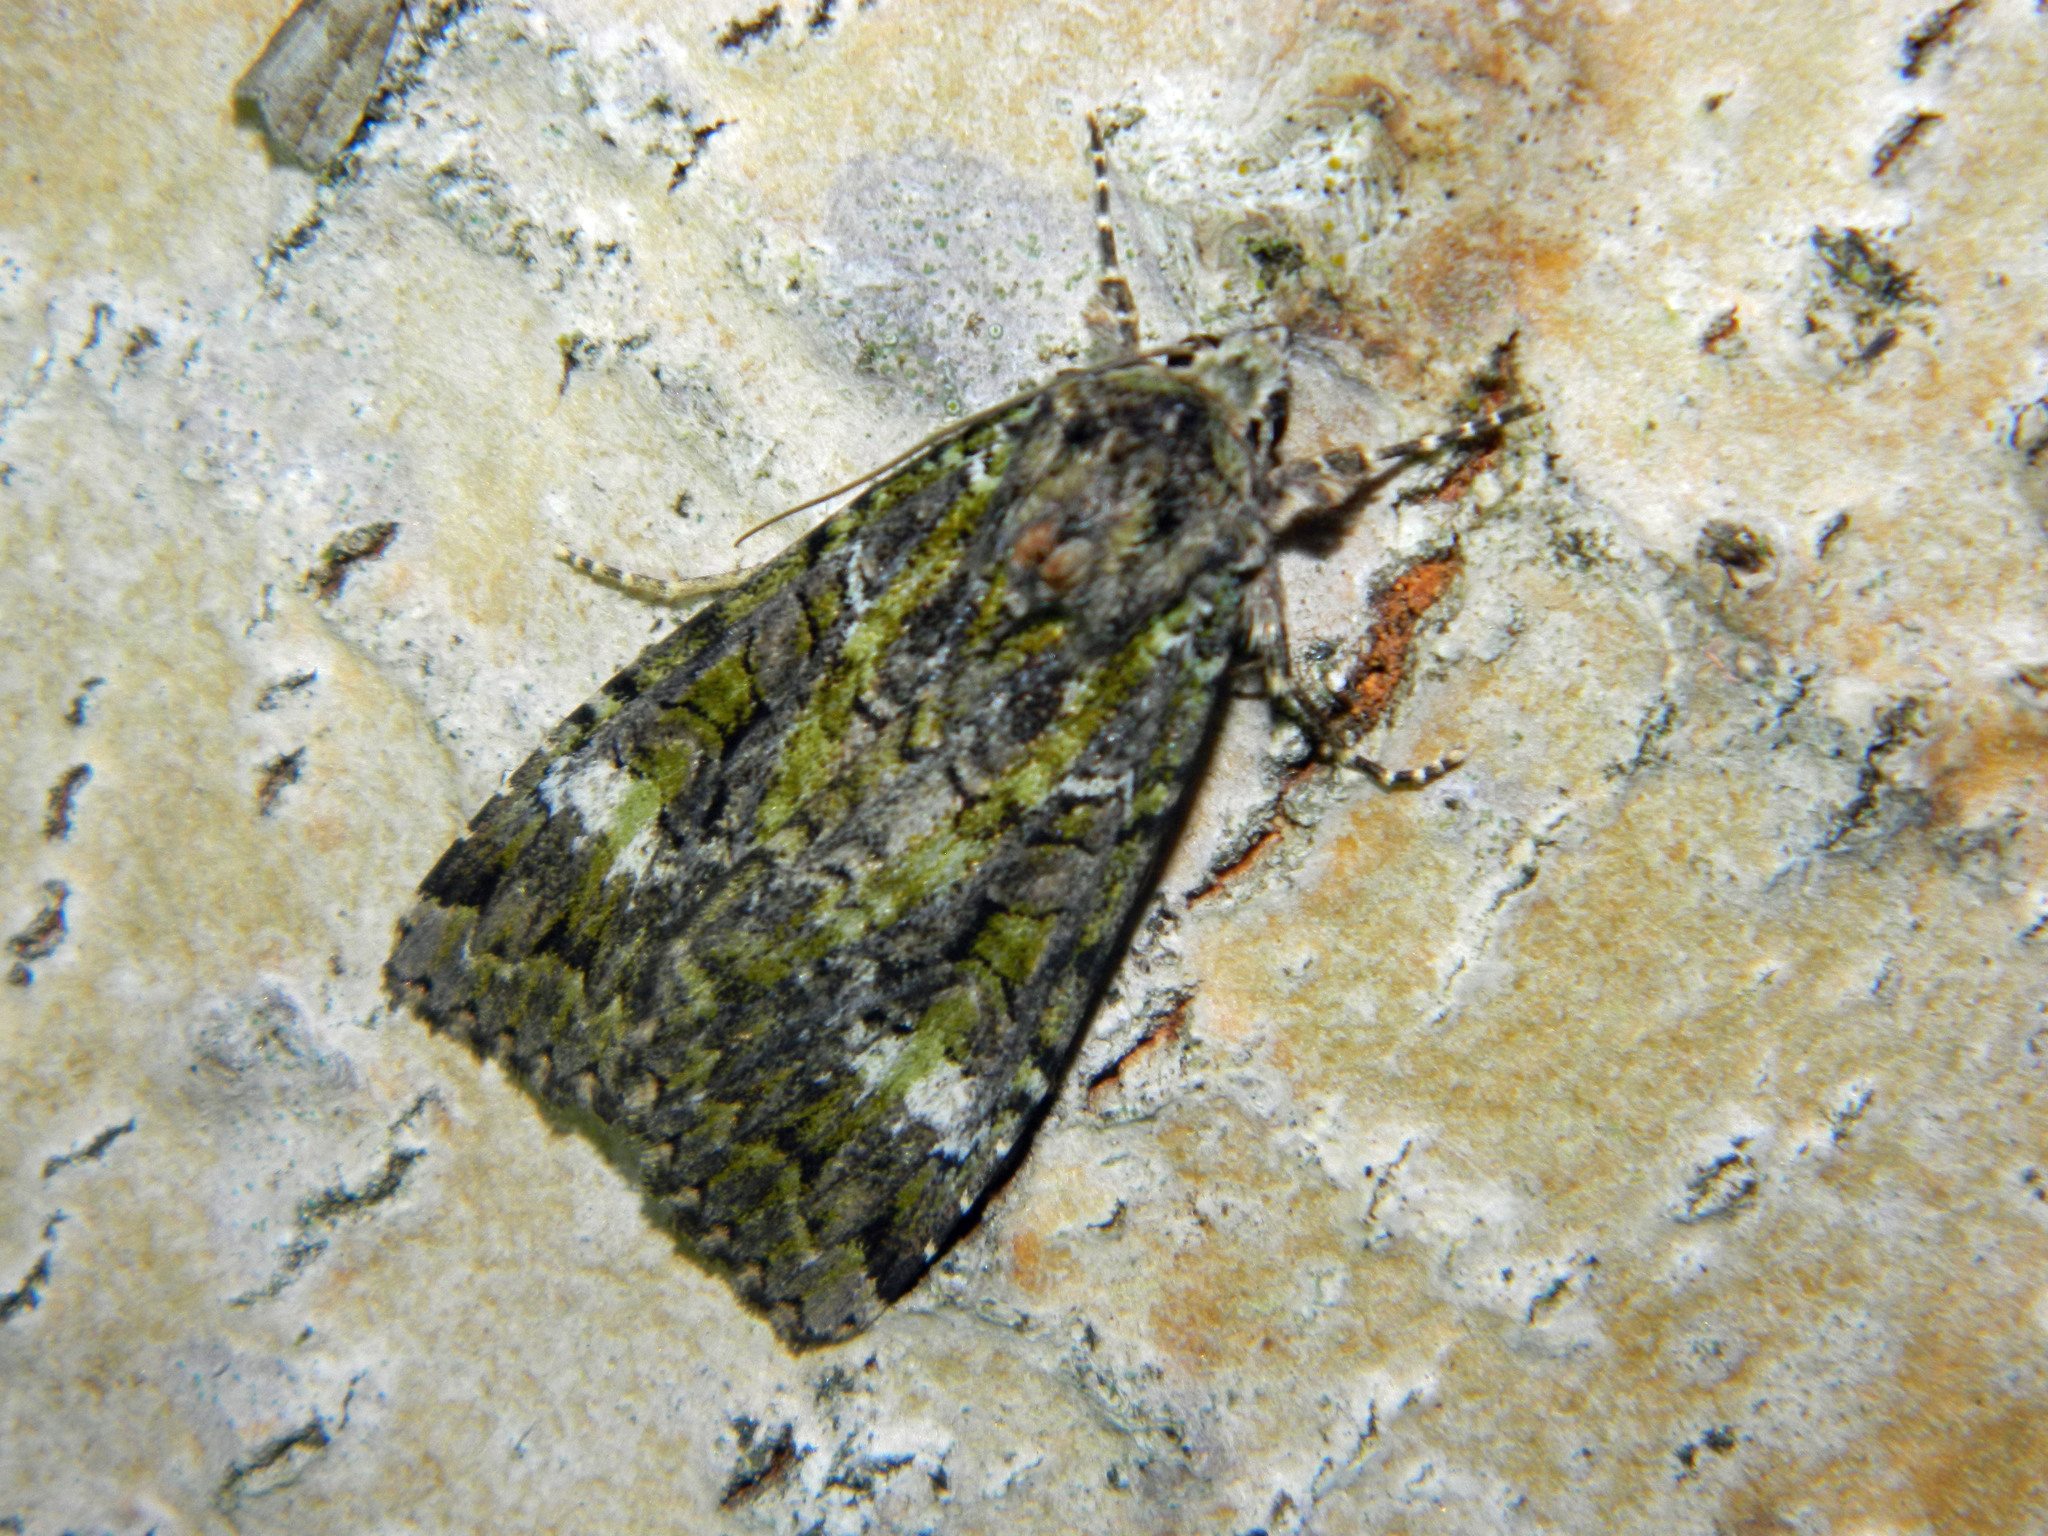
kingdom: Animalia
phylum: Arthropoda
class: Insecta
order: Lepidoptera
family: Noctuidae
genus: Anaplectoides
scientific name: Anaplectoides prasina
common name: Green arches
